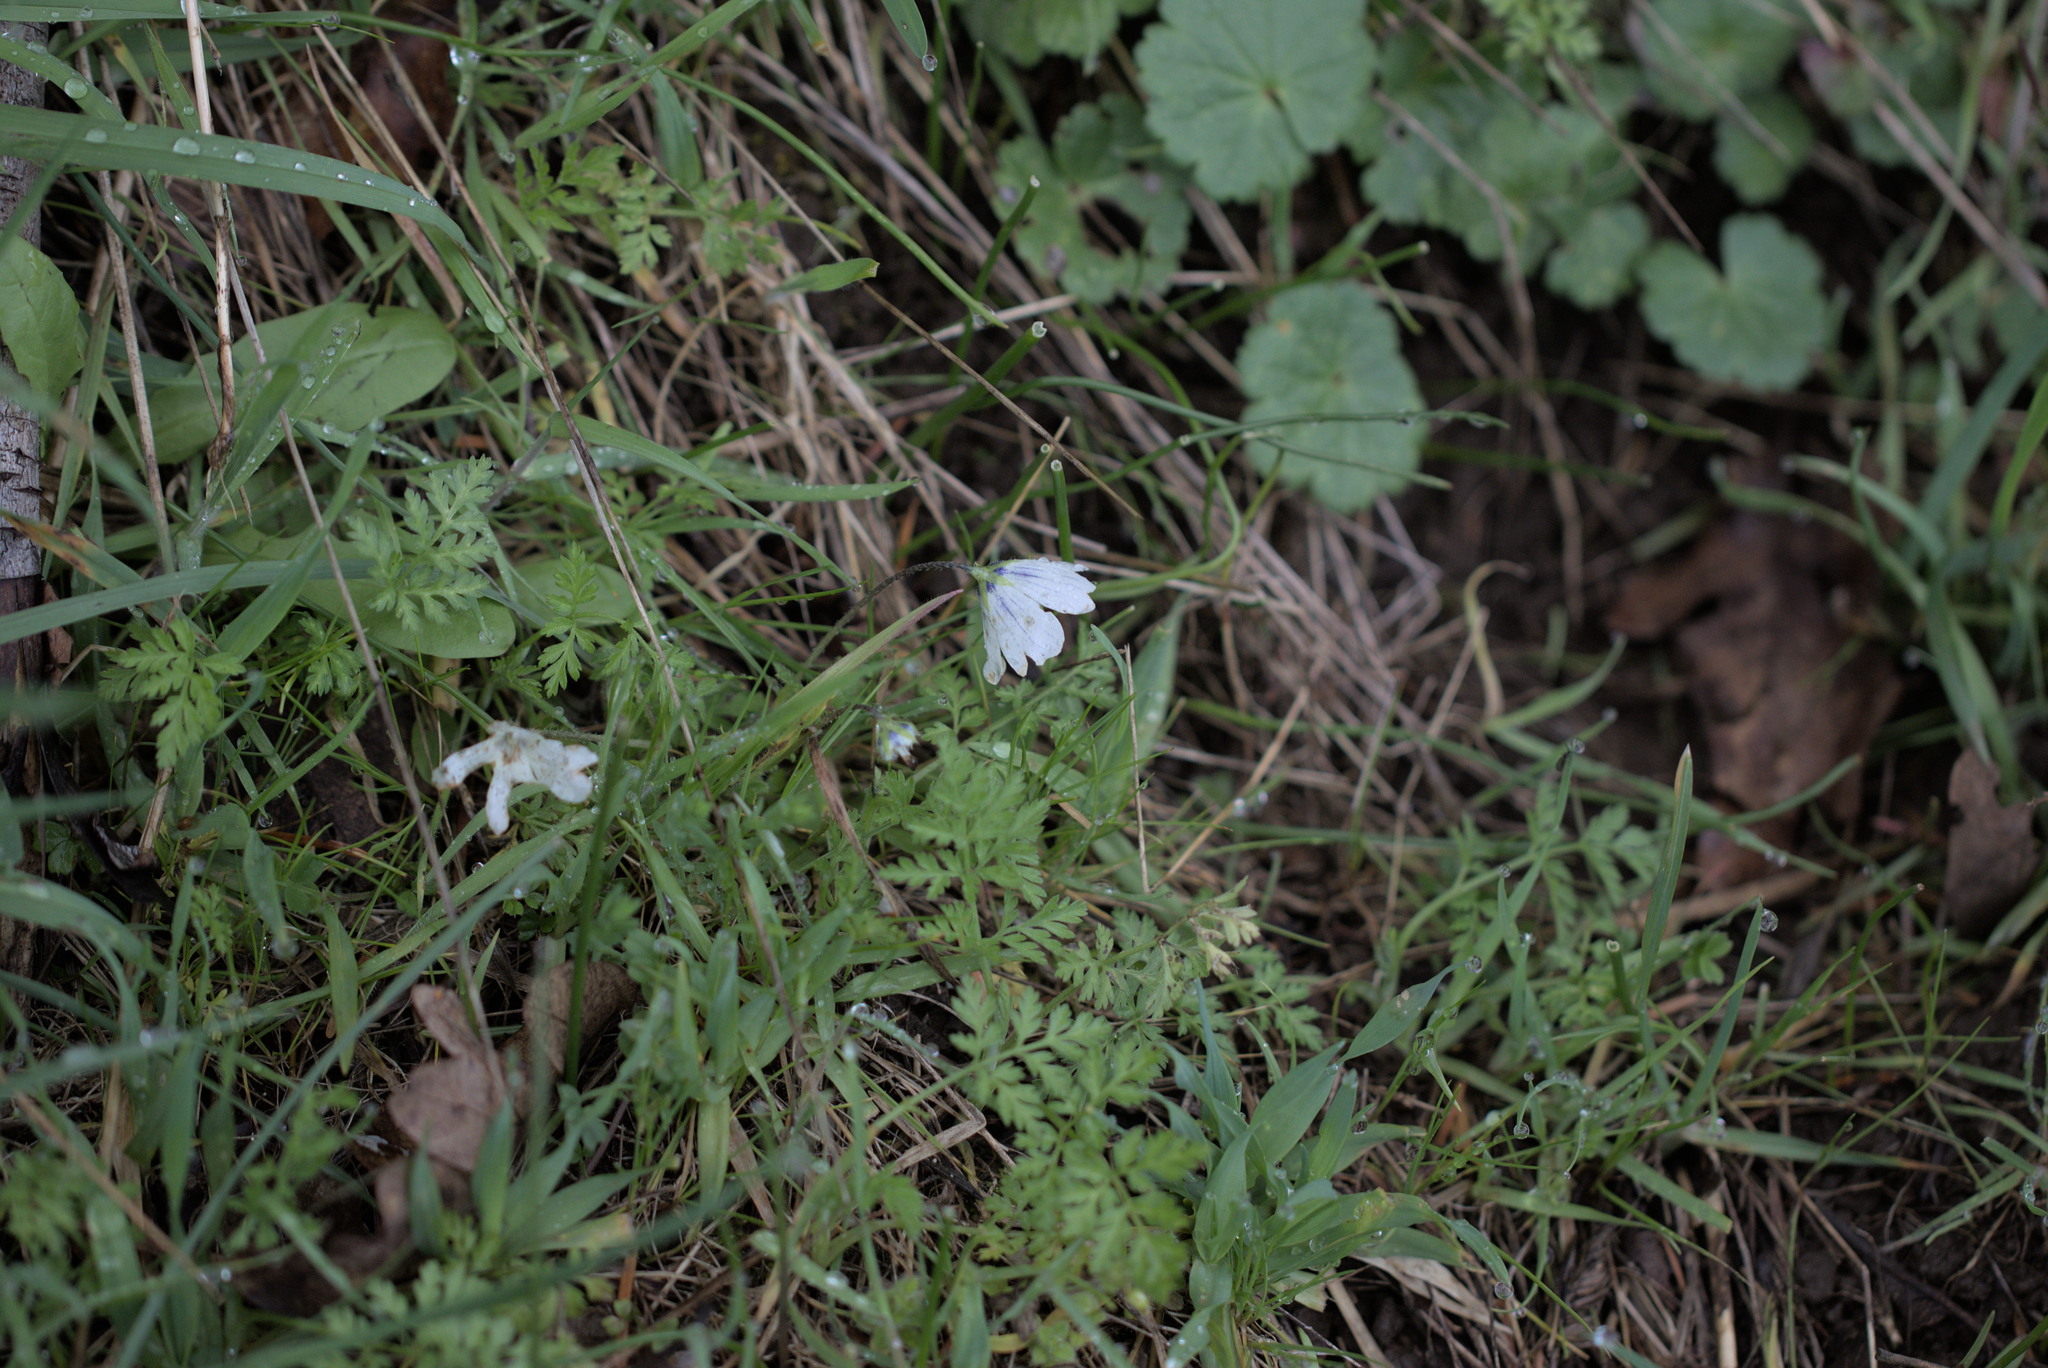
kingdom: Plantae
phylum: Tracheophyta
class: Magnoliopsida
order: Boraginales
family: Hydrophyllaceae
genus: Nemophila
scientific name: Nemophila menziesii
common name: Baby's-blue-eyes
